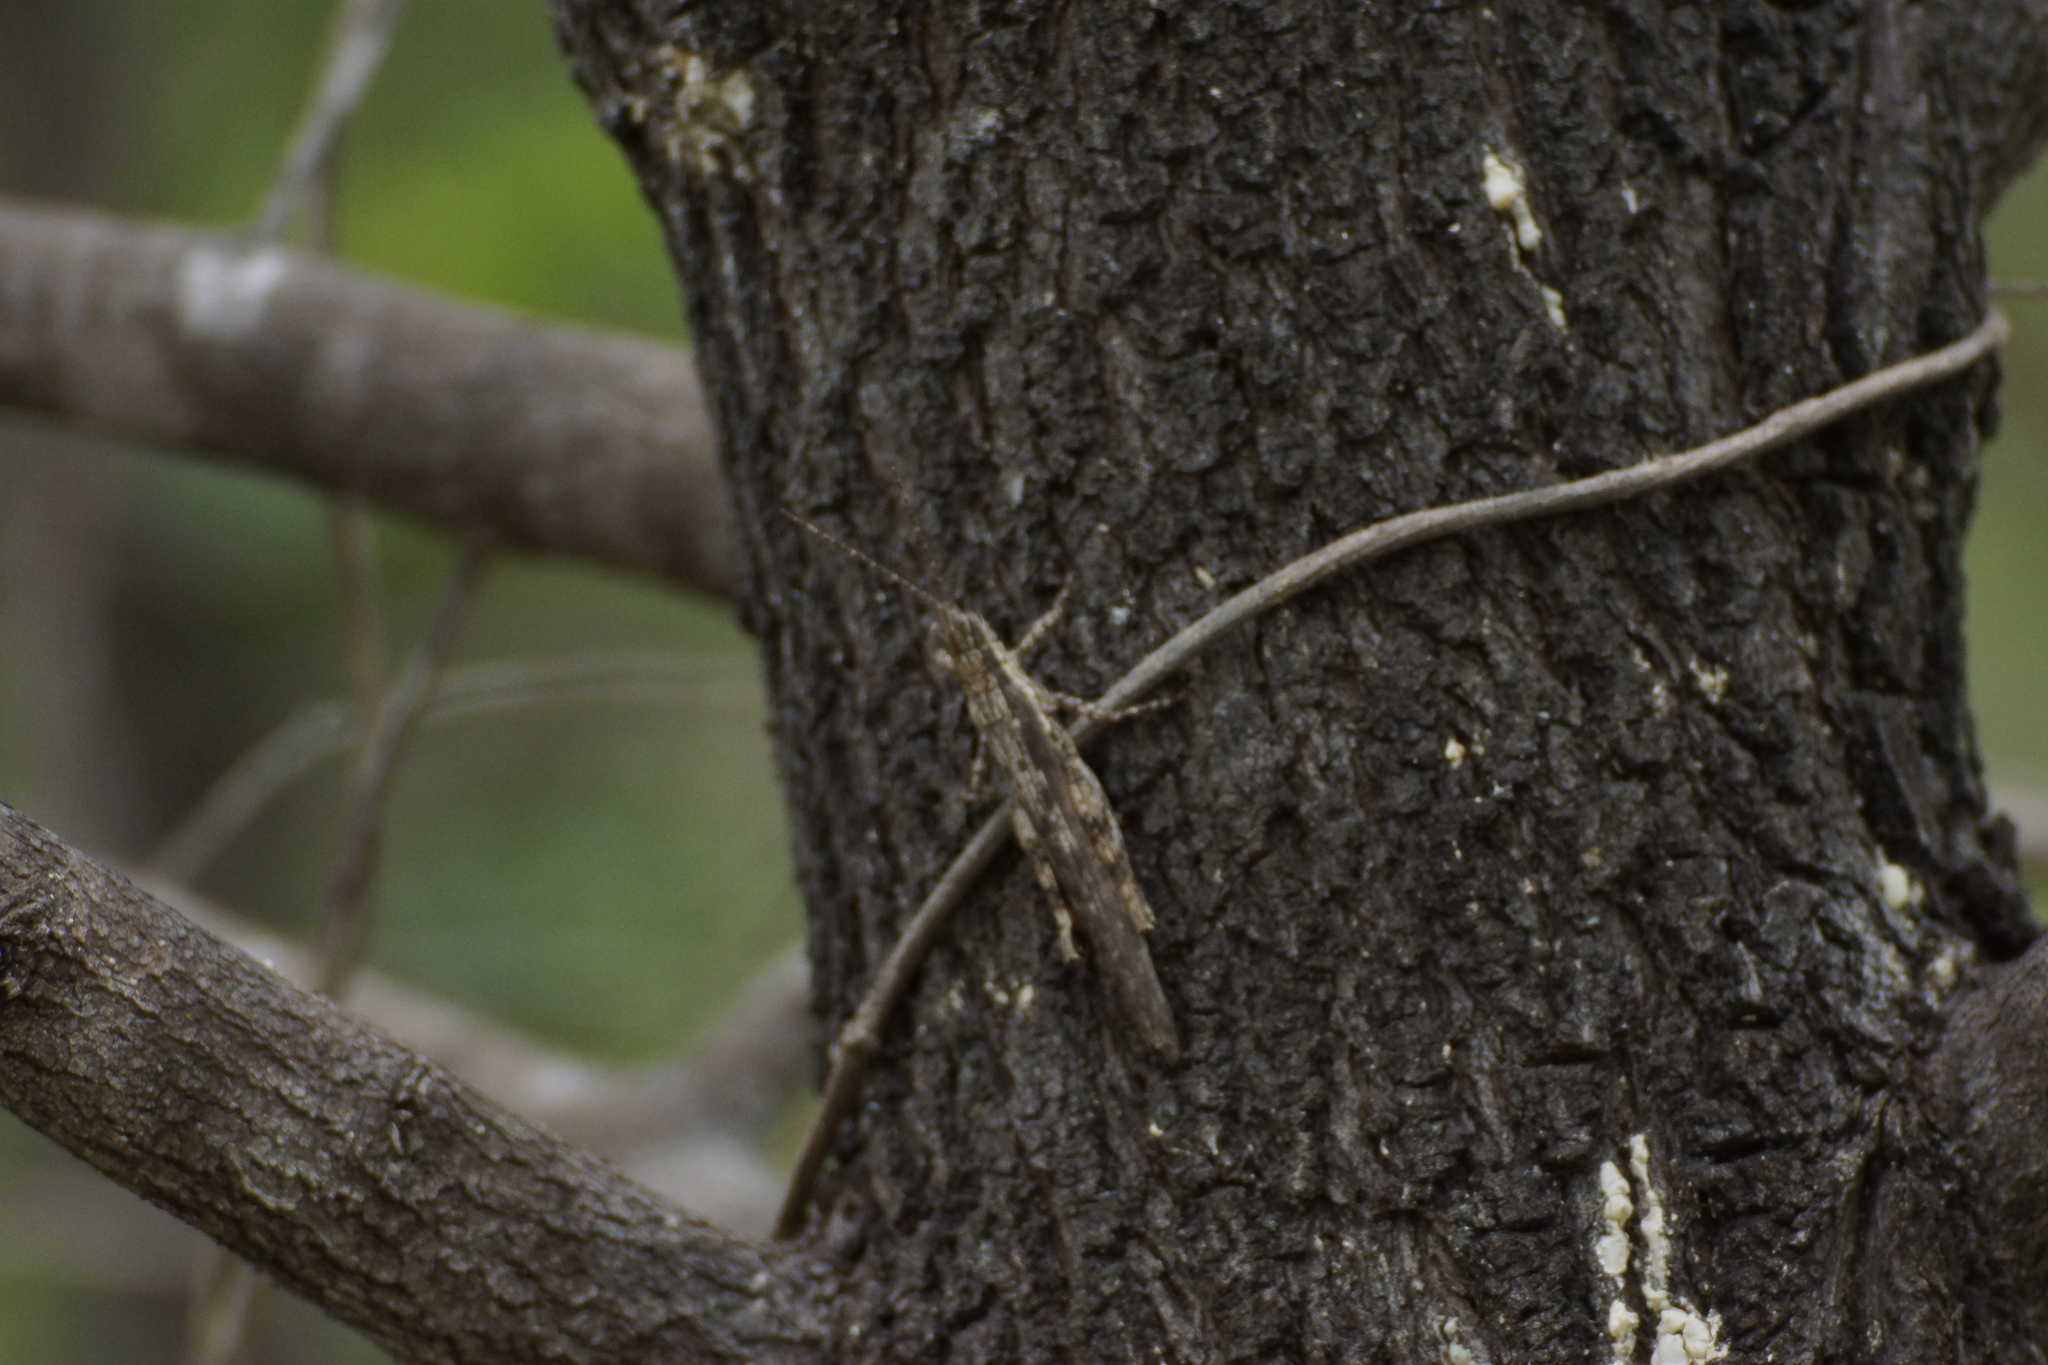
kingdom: Animalia
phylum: Arthropoda
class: Insecta
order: Orthoptera
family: Acrididae
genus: Coryphistes
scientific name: Coryphistes
